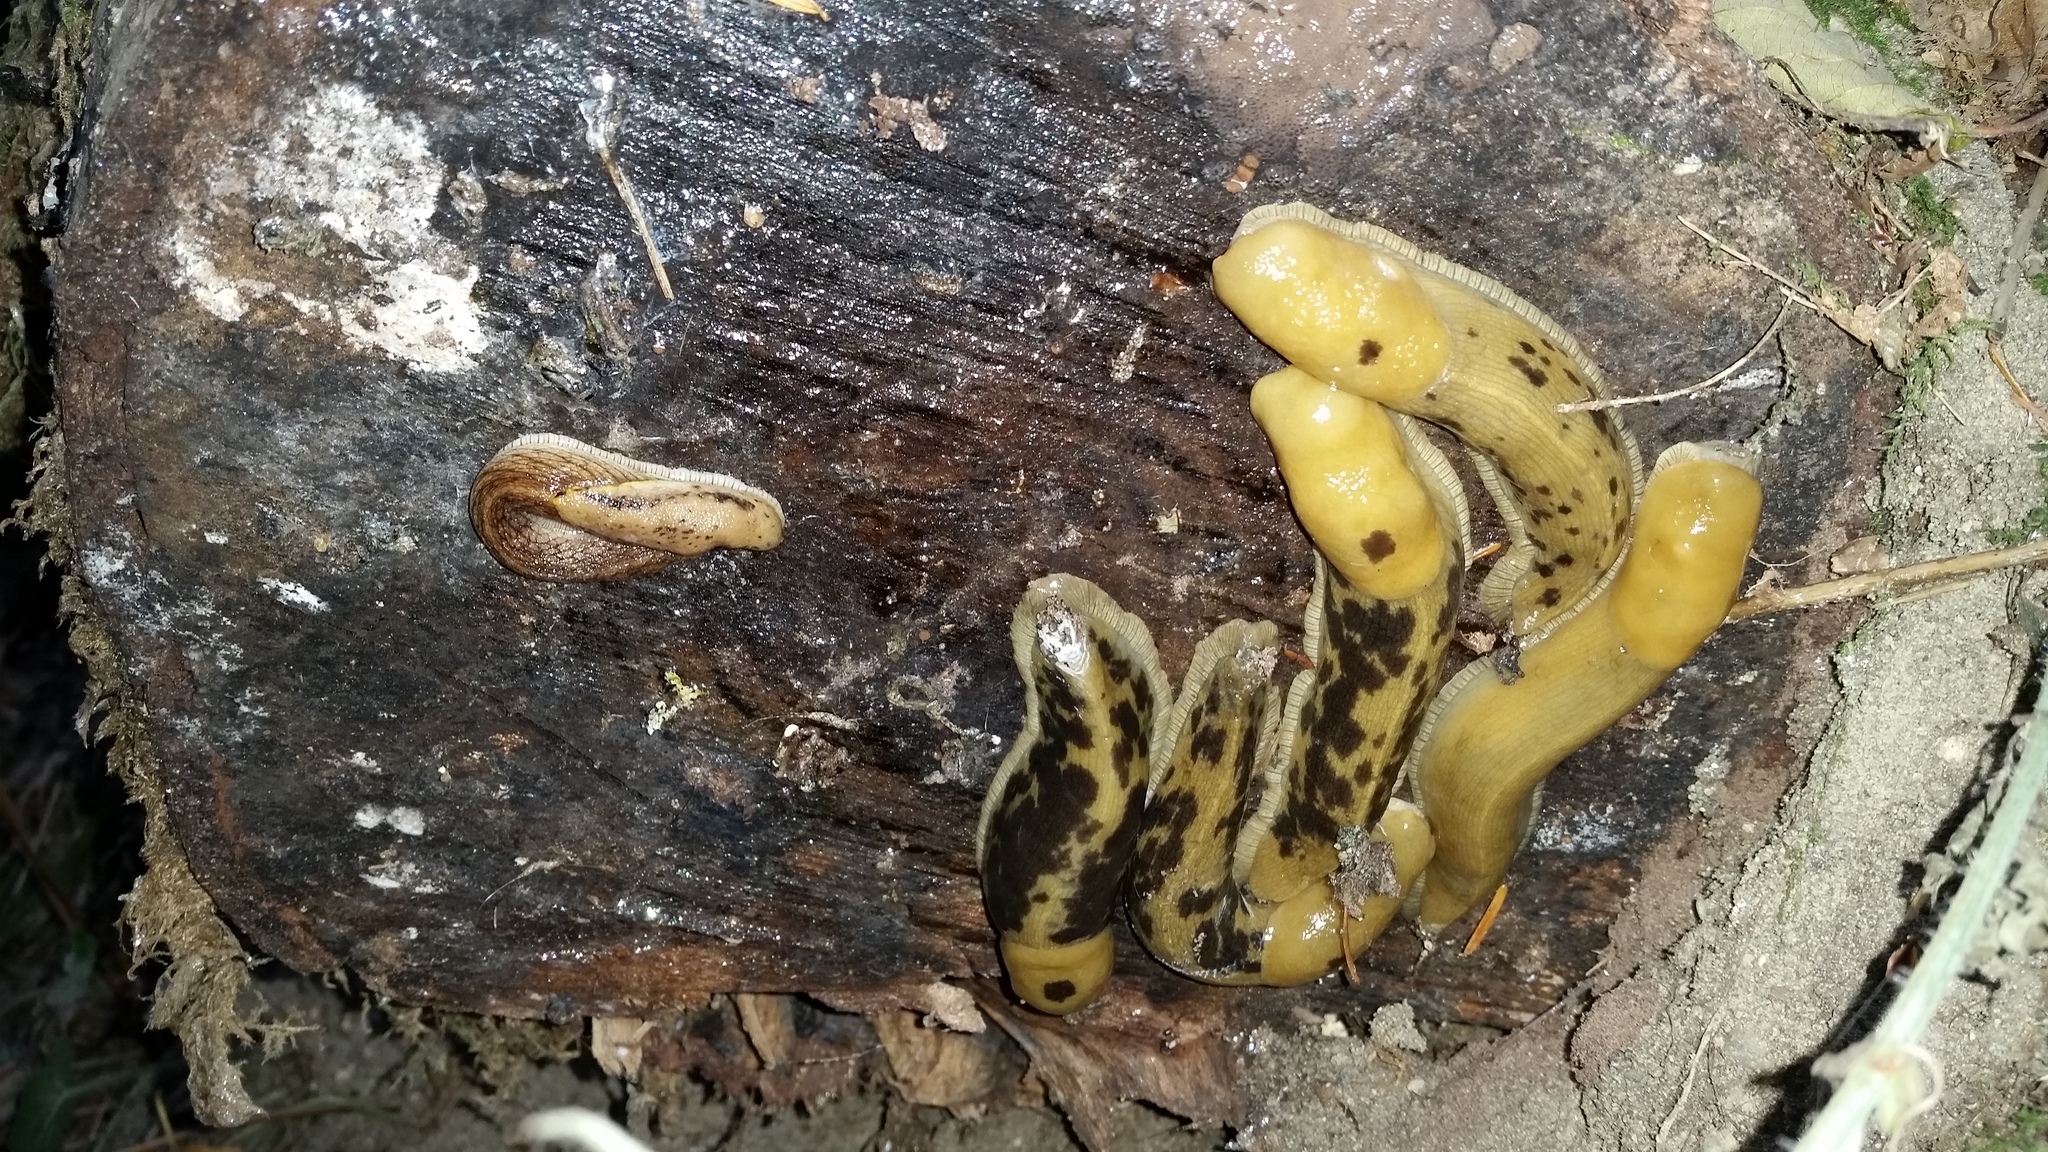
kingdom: Animalia
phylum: Mollusca
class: Gastropoda
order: Stylommatophora
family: Ariolimacidae
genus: Ariolimax
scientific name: Ariolimax columbianus
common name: Pacific banana slug
